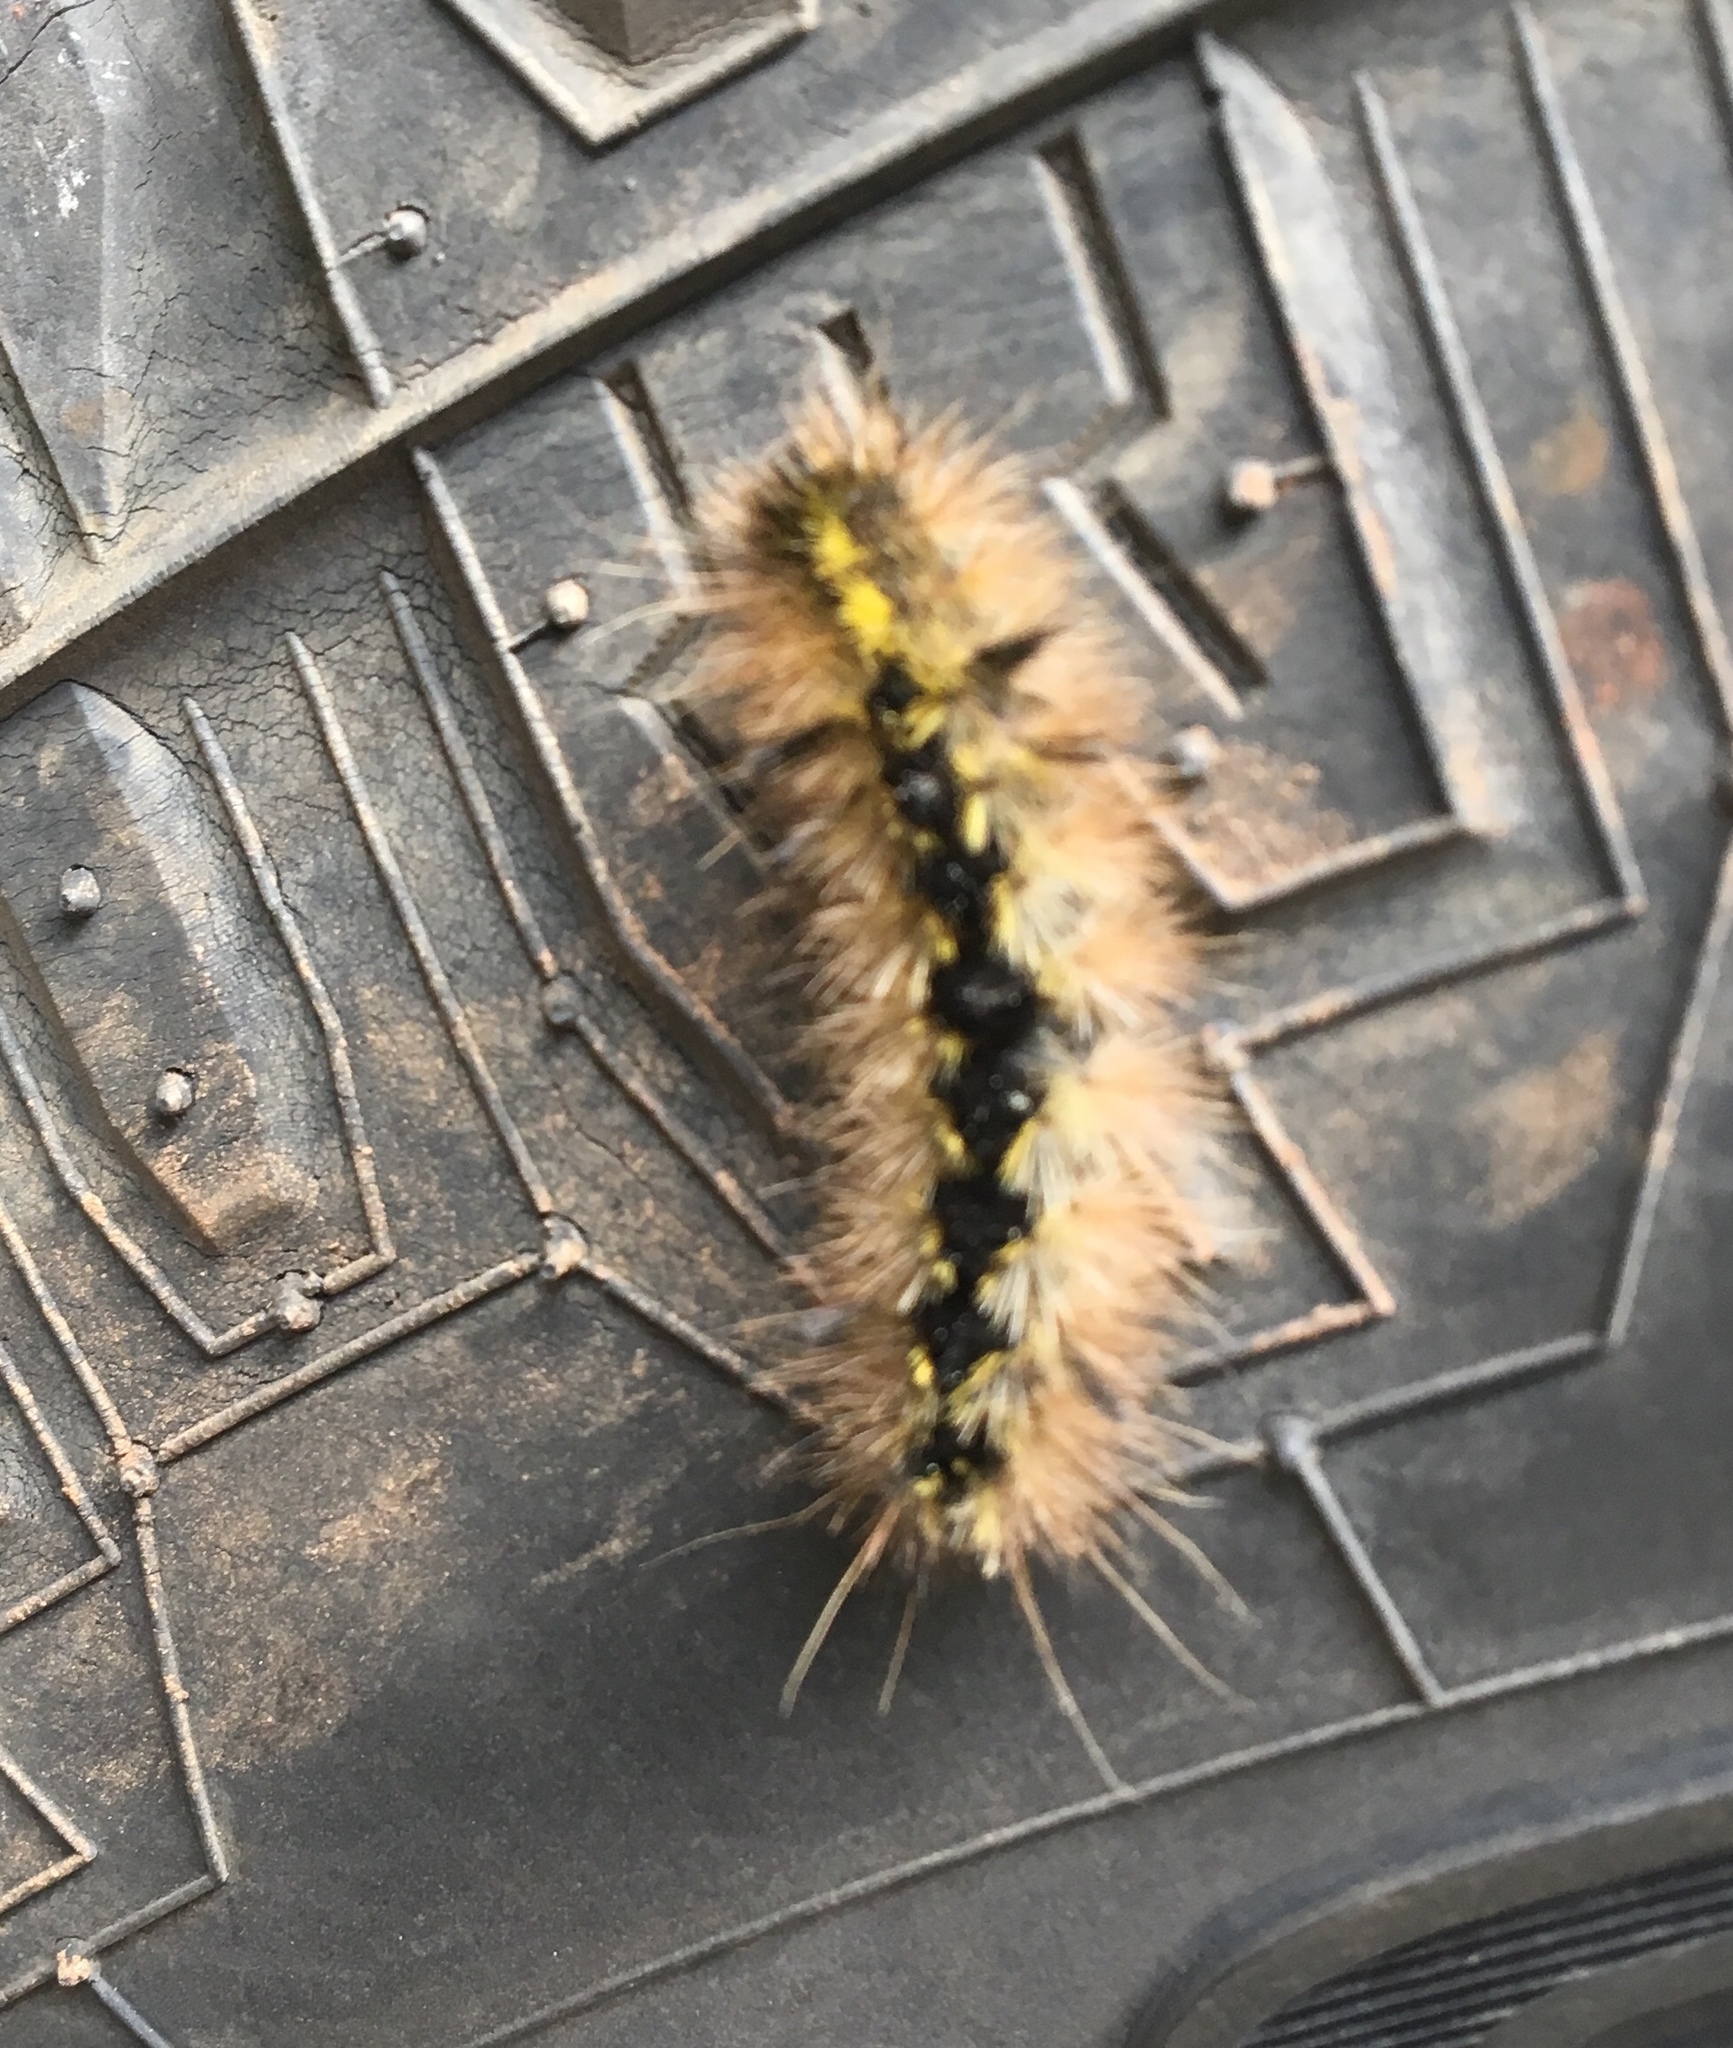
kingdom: Animalia
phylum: Arthropoda
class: Insecta
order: Lepidoptera
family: Erebidae
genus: Lophocampa
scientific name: Lophocampa argentata
